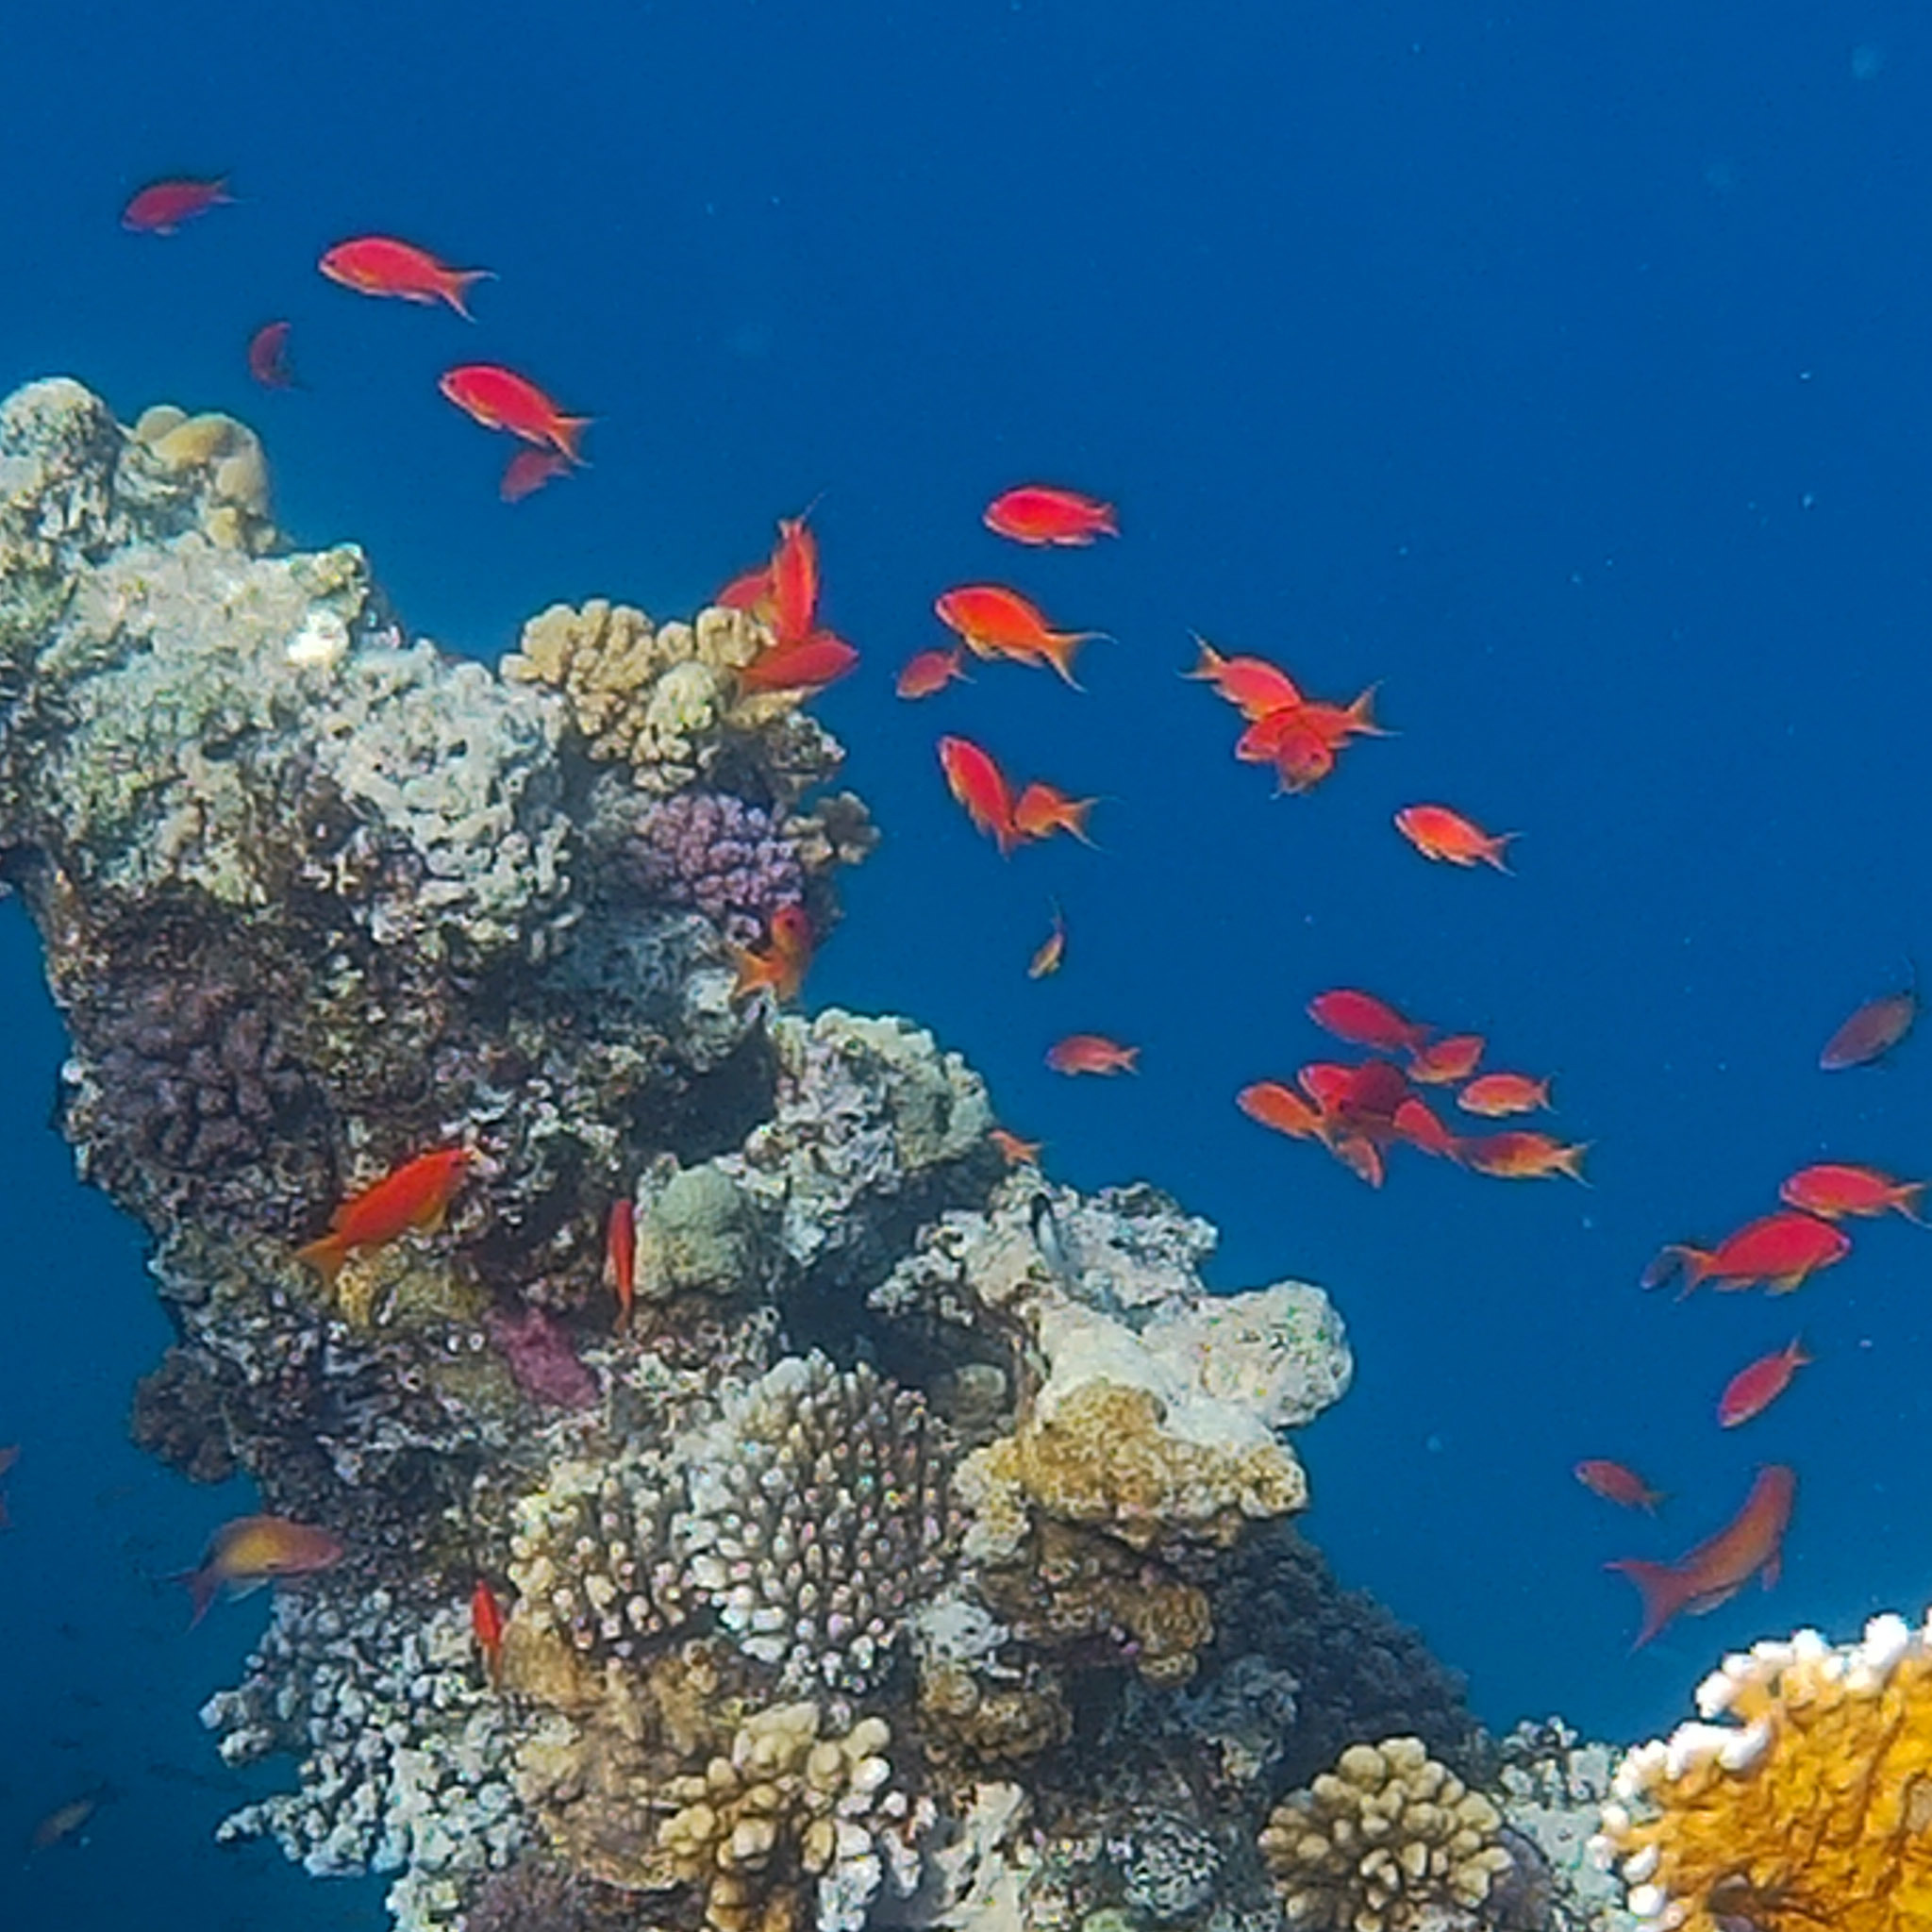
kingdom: Animalia
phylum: Chordata
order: Perciformes
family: Serranidae
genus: Pseudanthias
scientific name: Pseudanthias squamipinnis
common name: Scalefin anthias
